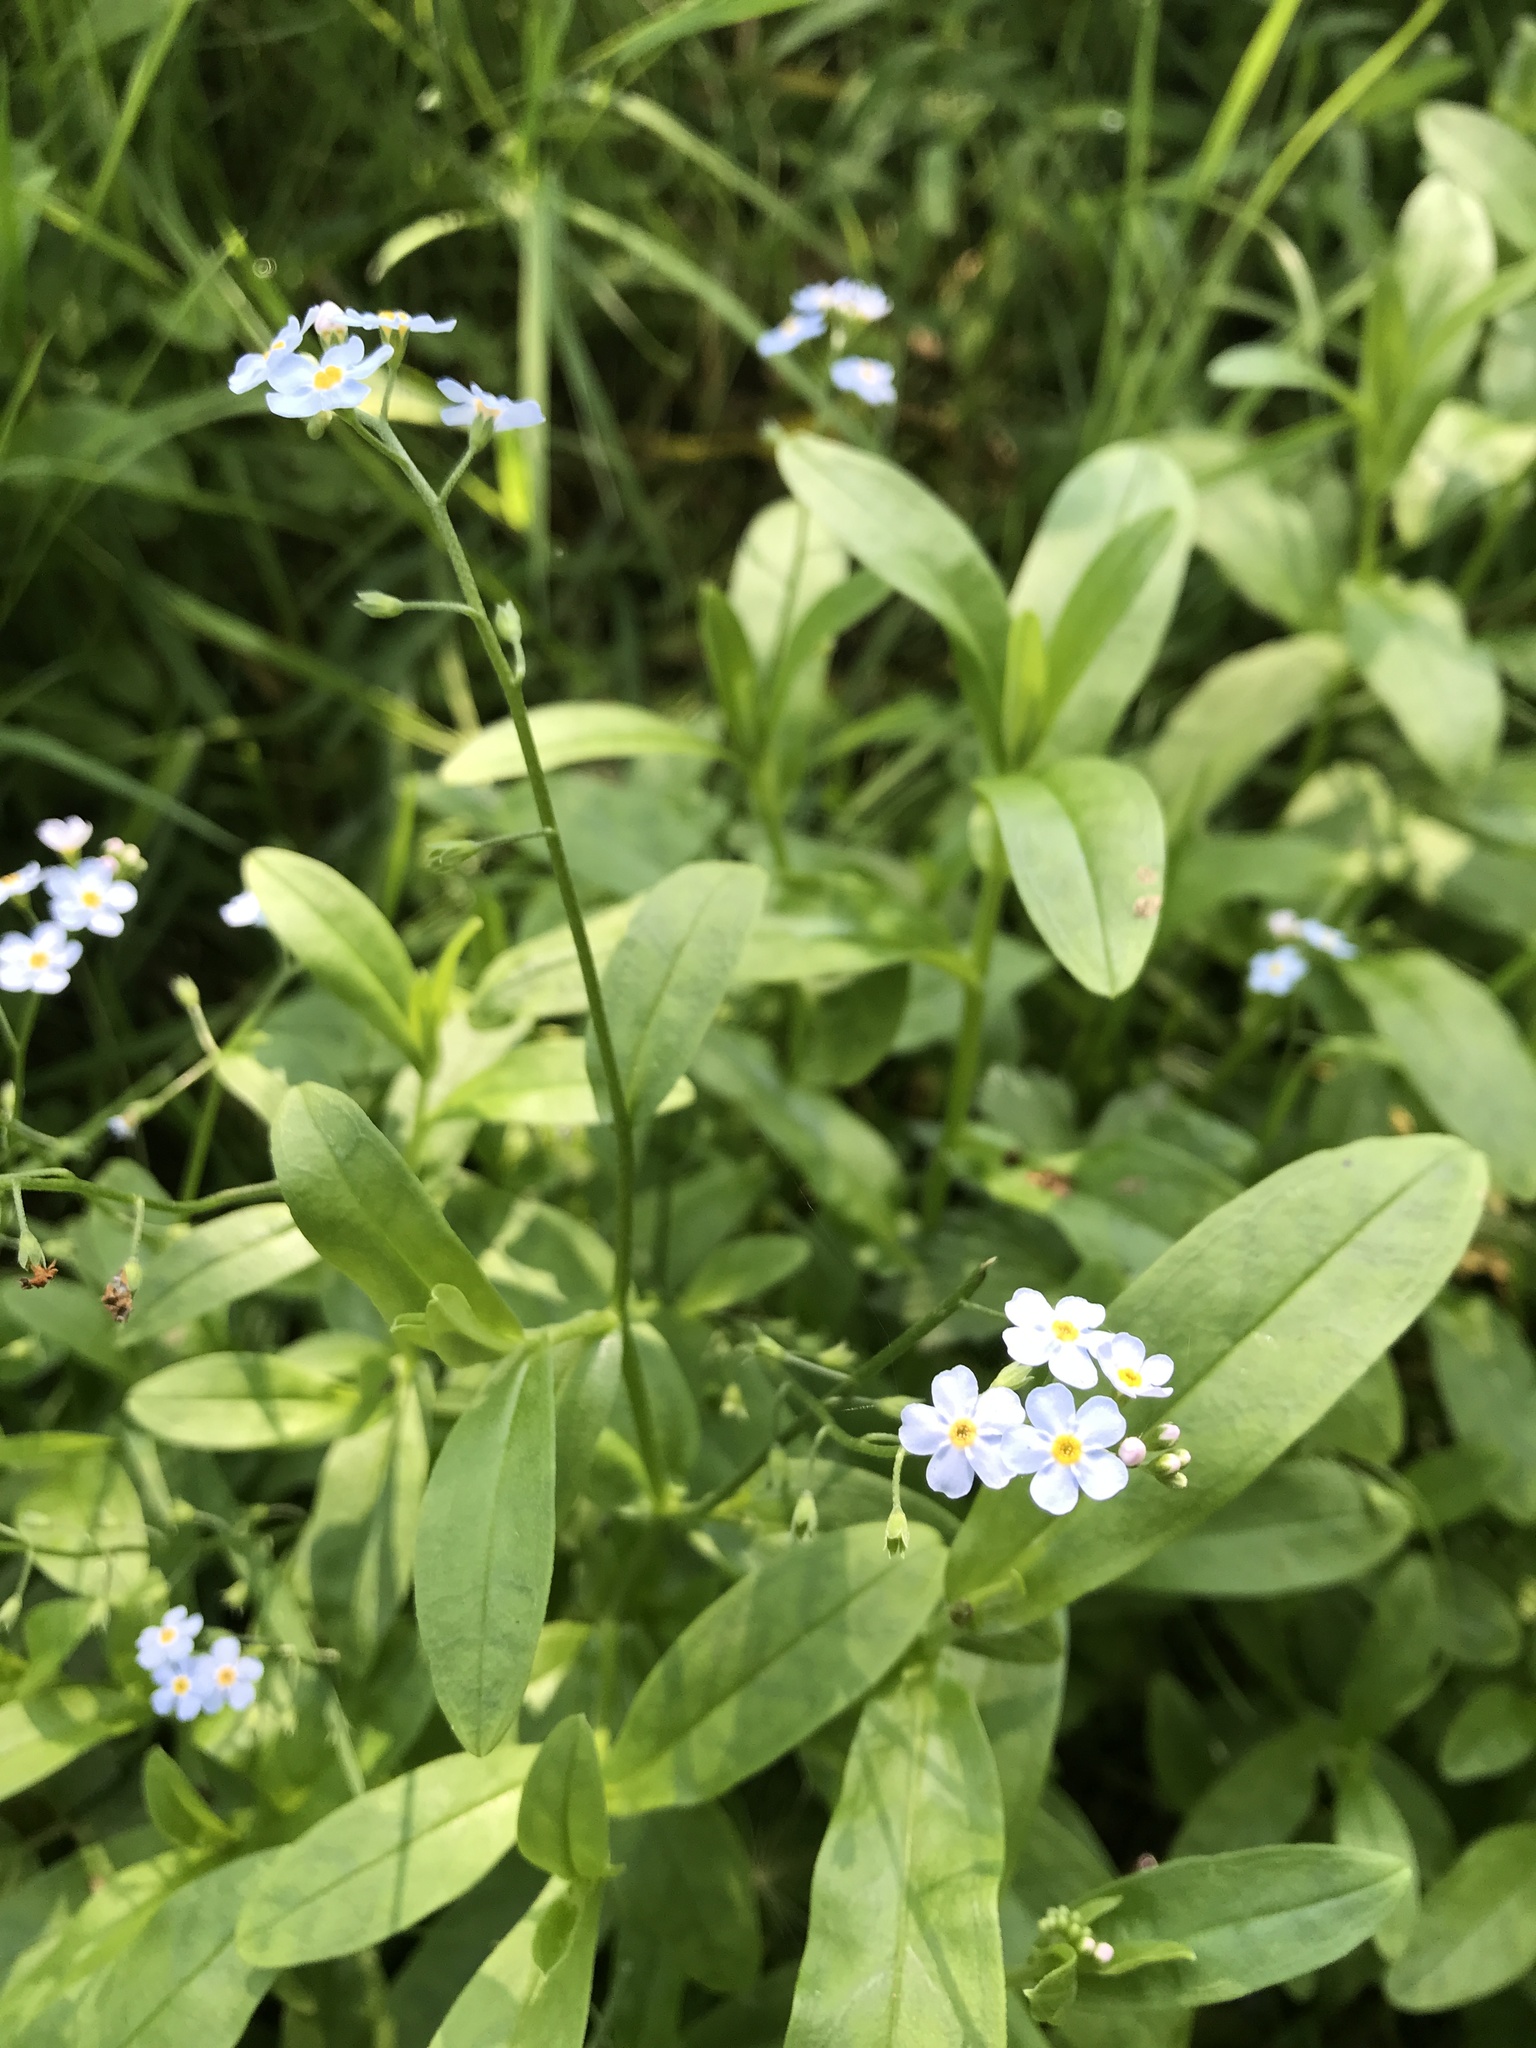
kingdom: Plantae
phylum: Tracheophyta
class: Magnoliopsida
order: Boraginales
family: Boraginaceae
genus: Myosotis
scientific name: Myosotis scorpioides
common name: Water forget-me-not
